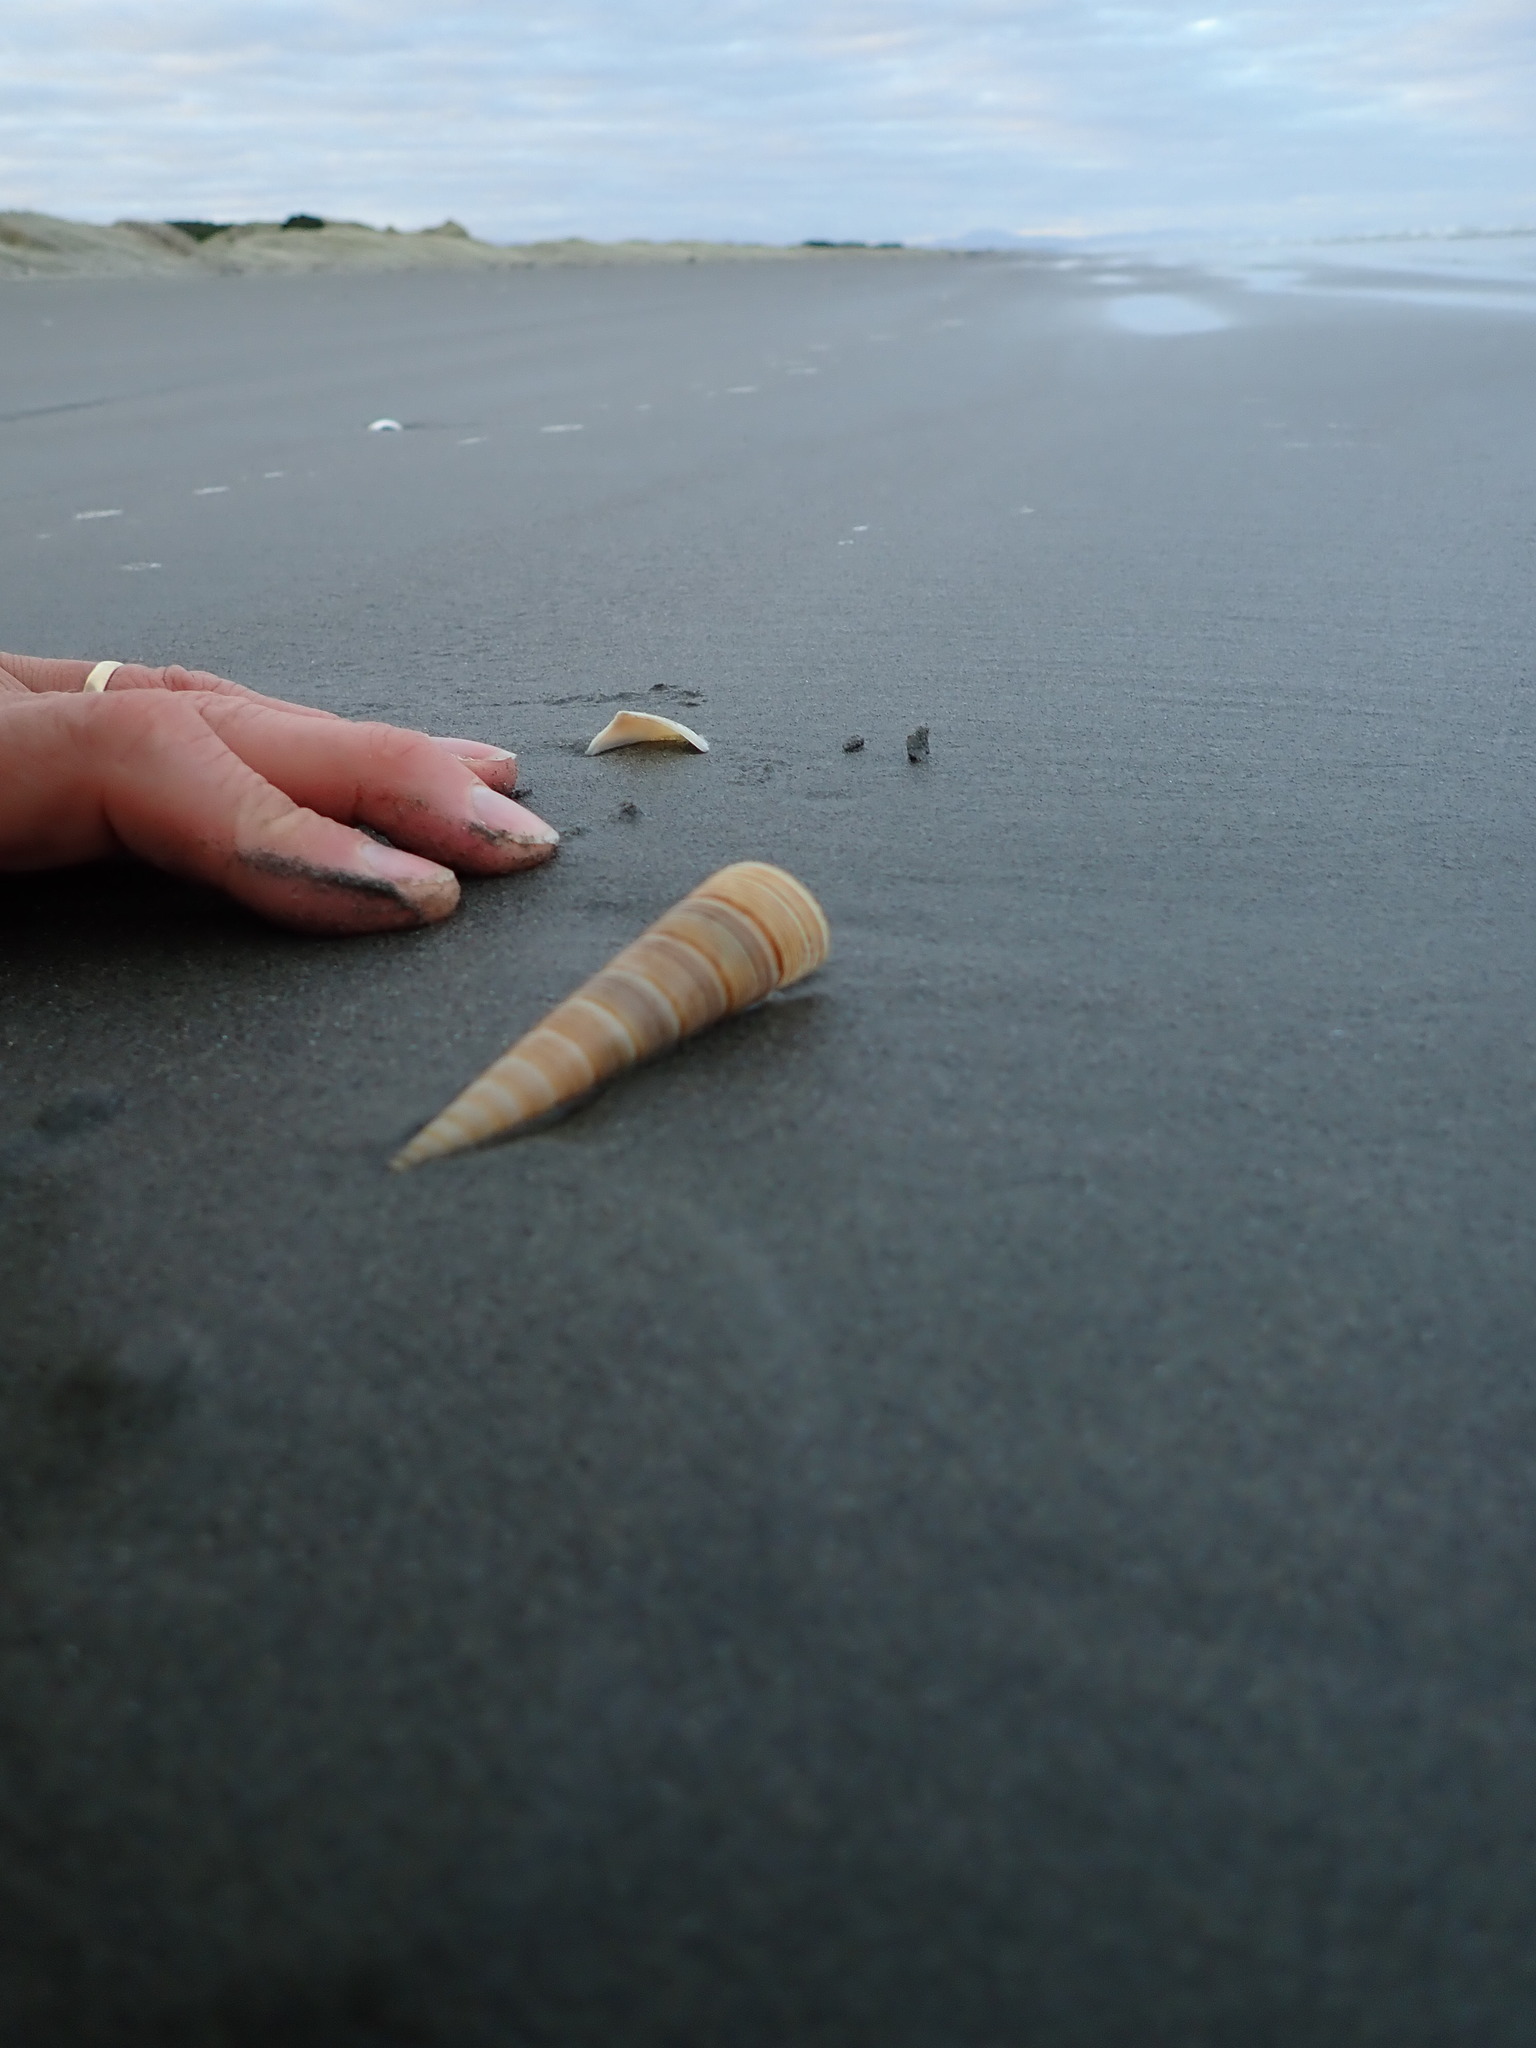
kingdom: Animalia
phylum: Mollusca
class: Gastropoda
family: Turritellidae
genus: Zeacolpus
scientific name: Zeacolpus vittatus
